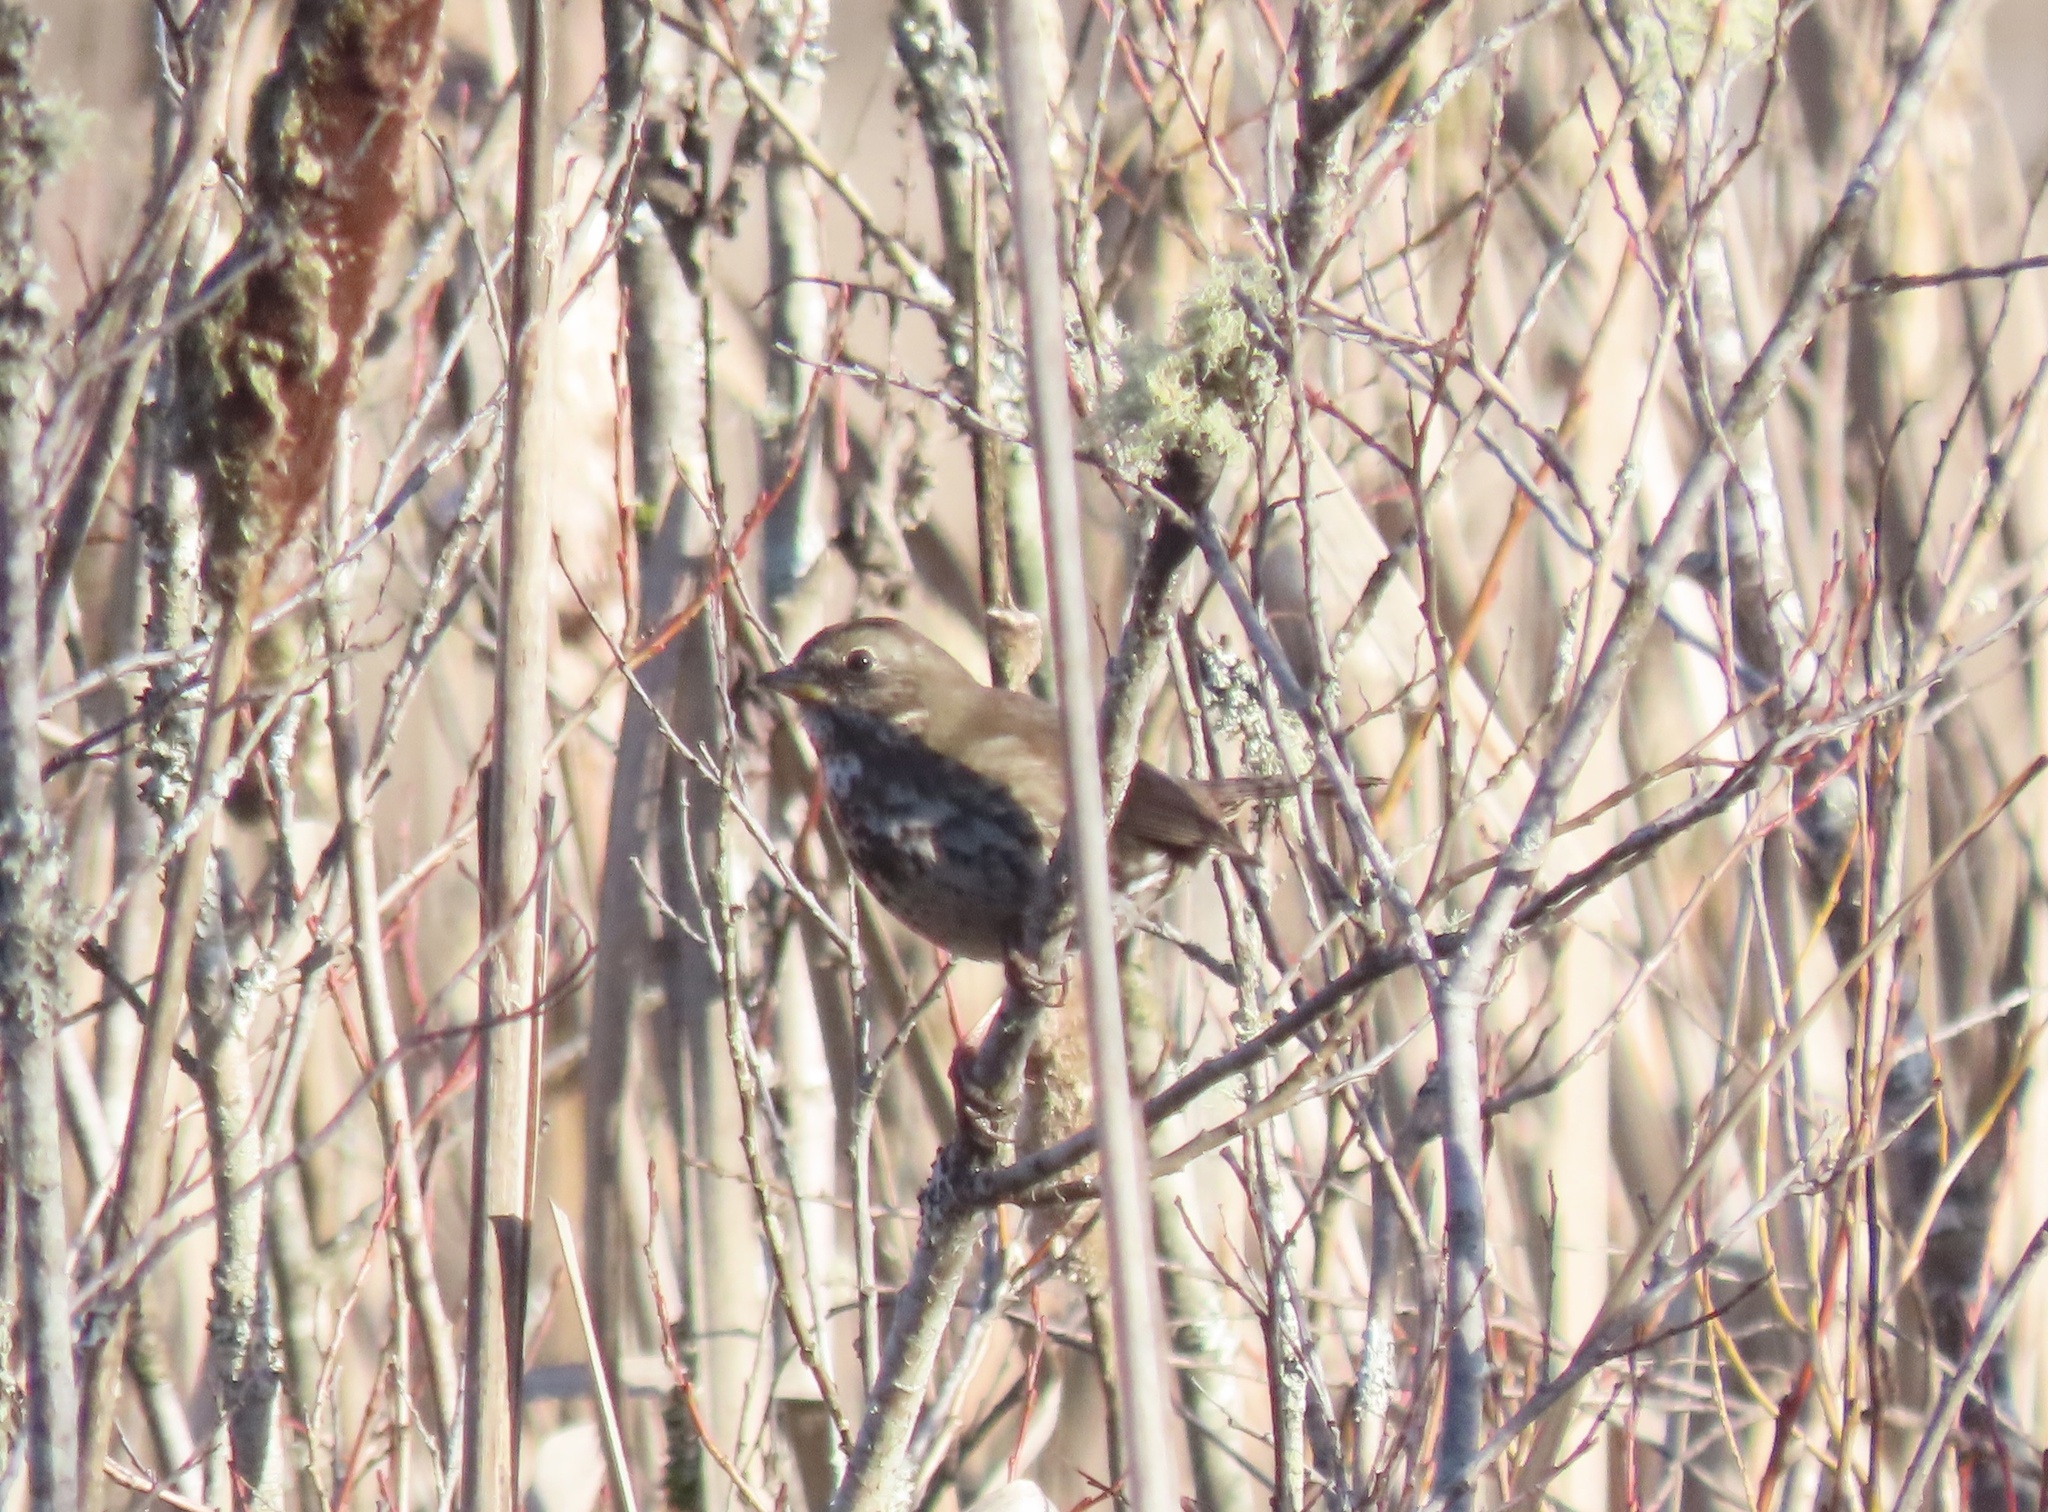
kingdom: Animalia
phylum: Chordata
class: Aves
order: Passeriformes
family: Passerellidae
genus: Passerella
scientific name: Passerella iliaca
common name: Fox sparrow
